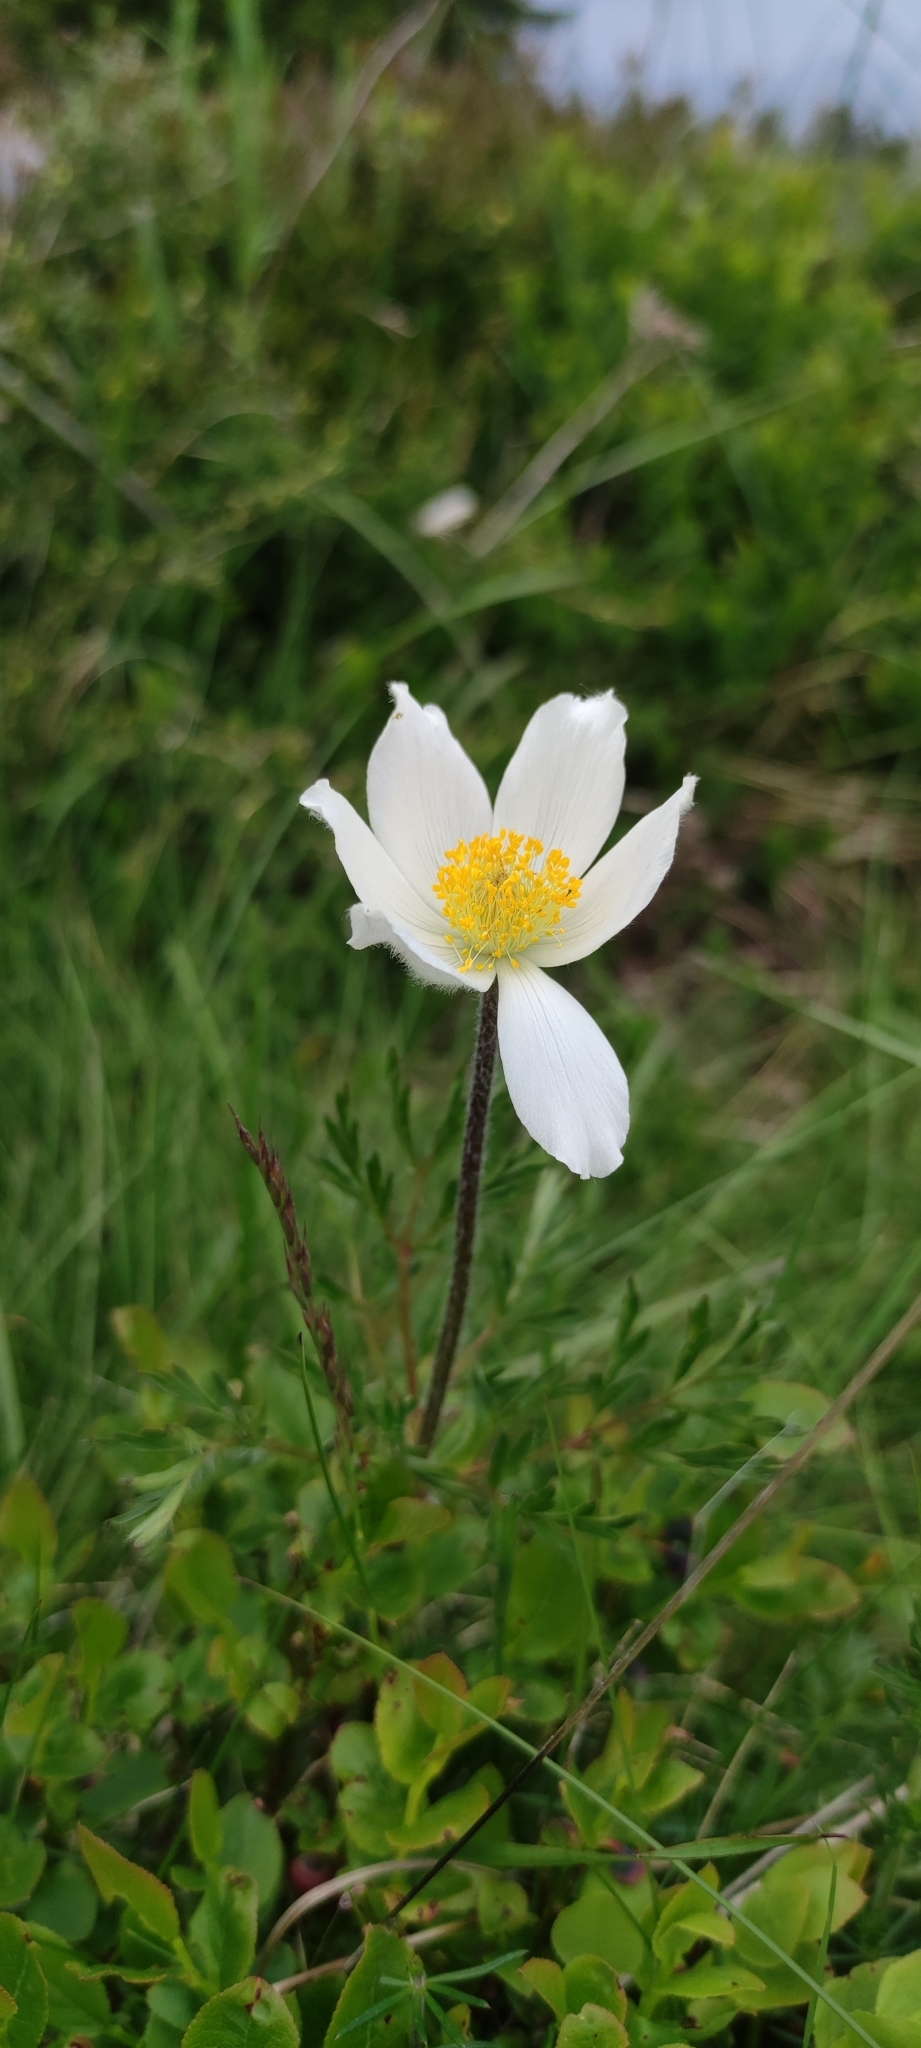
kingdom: Plantae
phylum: Tracheophyta
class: Magnoliopsida
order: Ranunculales
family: Ranunculaceae
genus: Pulsatilla
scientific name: Pulsatilla alpina
